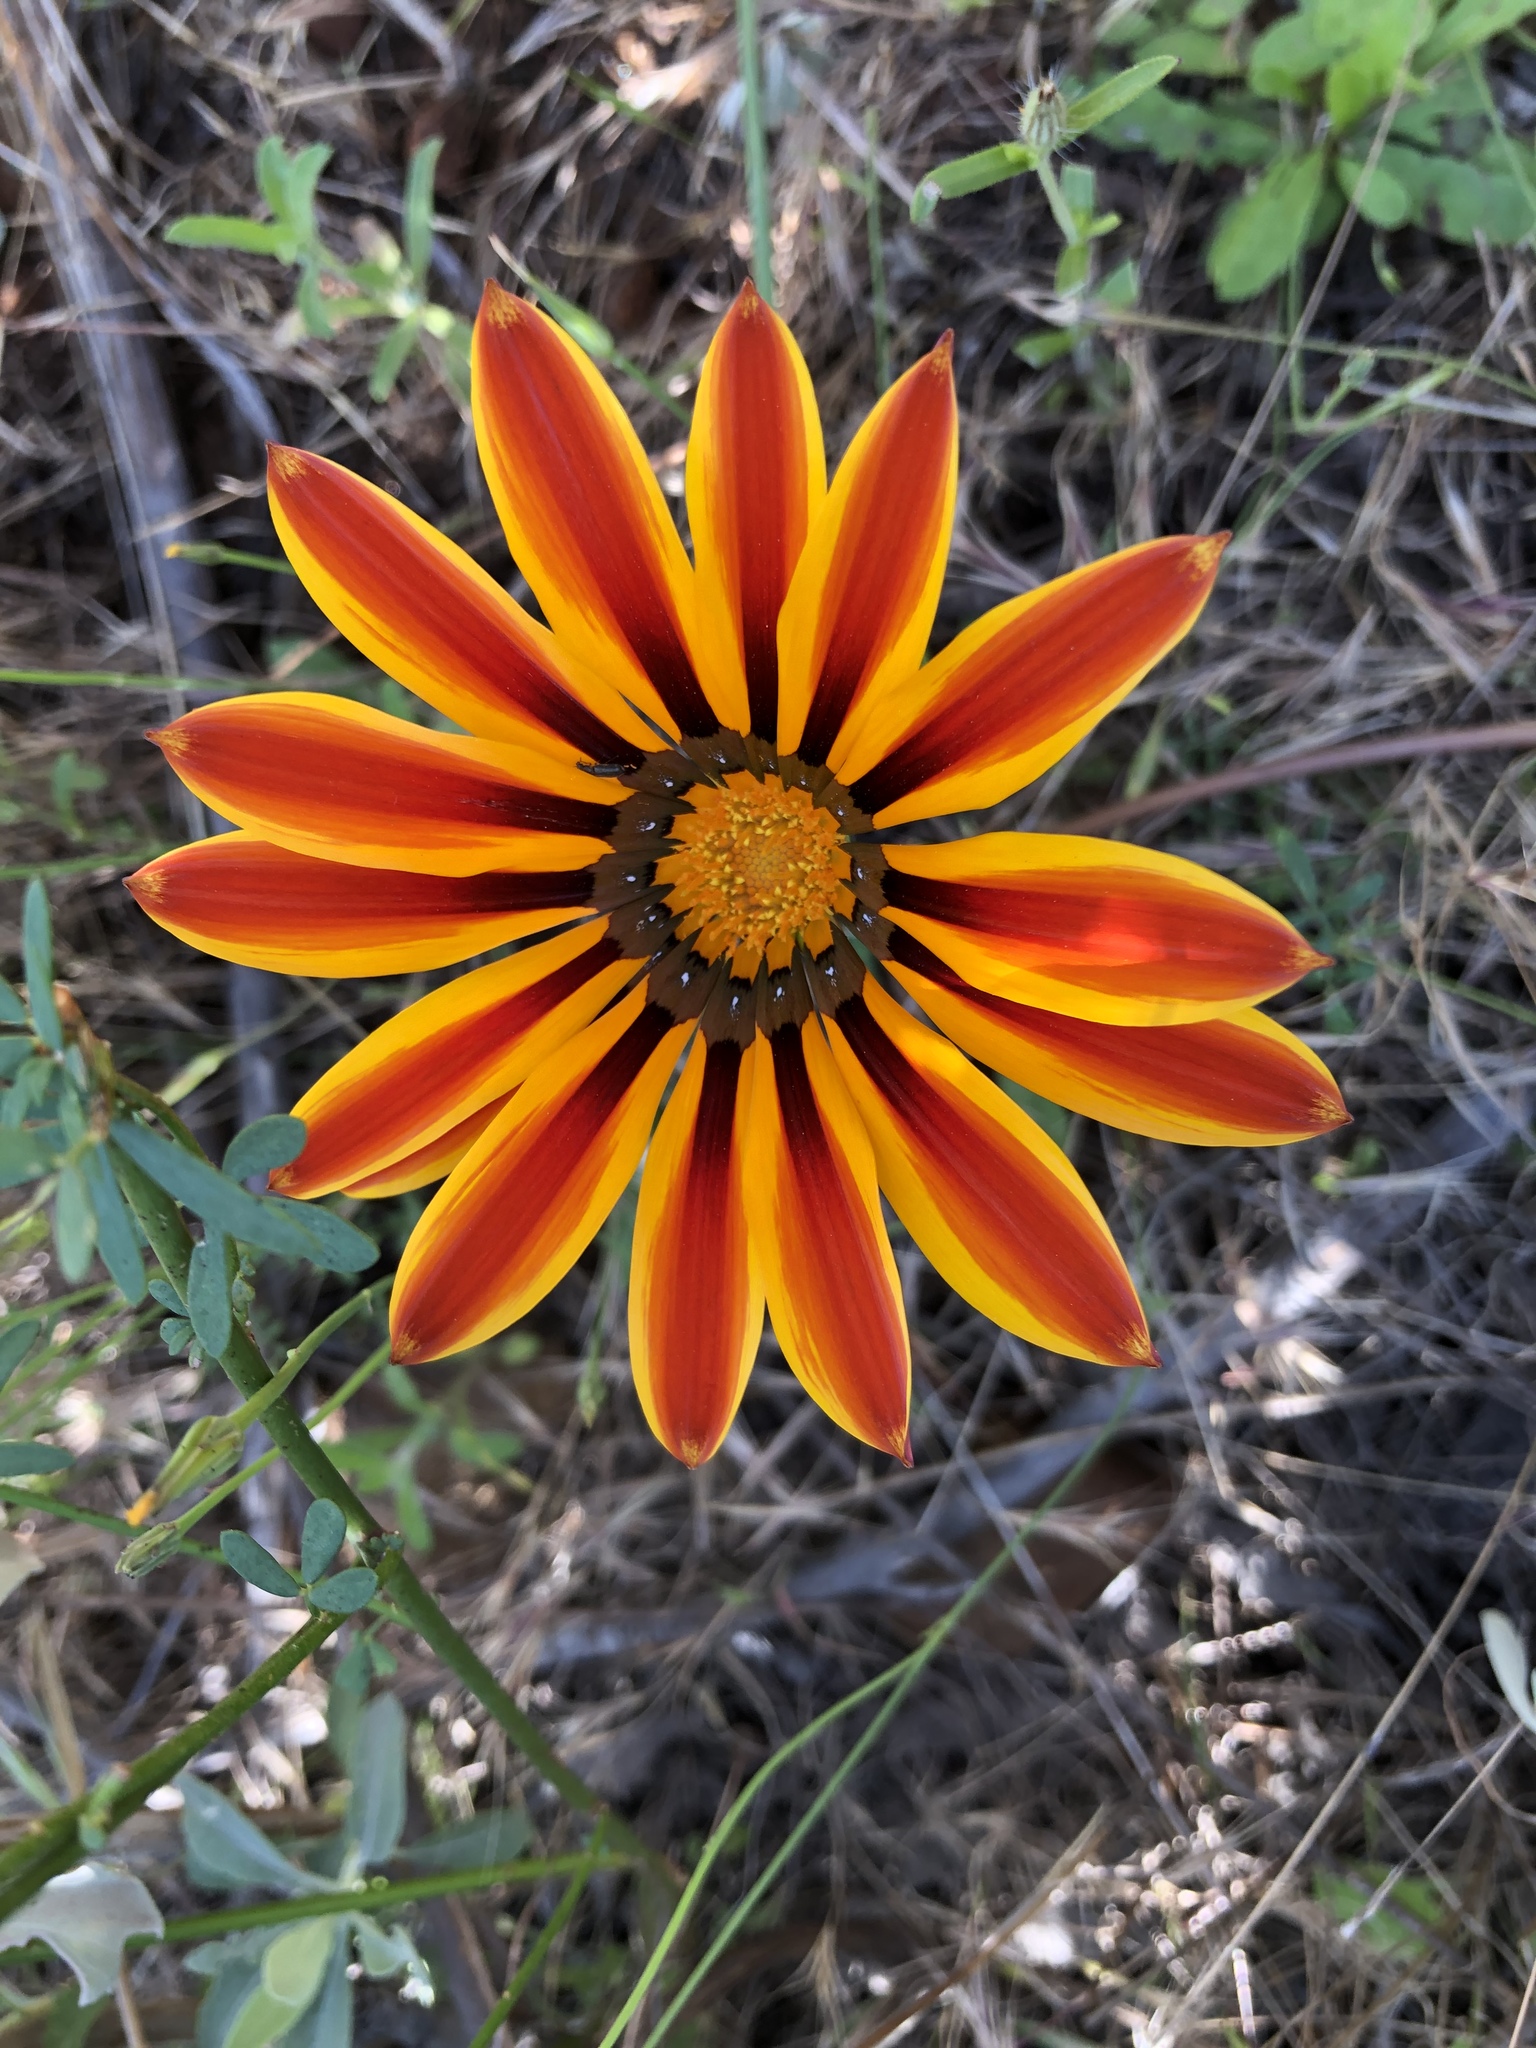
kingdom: Plantae
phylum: Tracheophyta
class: Magnoliopsida
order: Asterales
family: Asteraceae
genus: Gazania
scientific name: Gazania splendens
